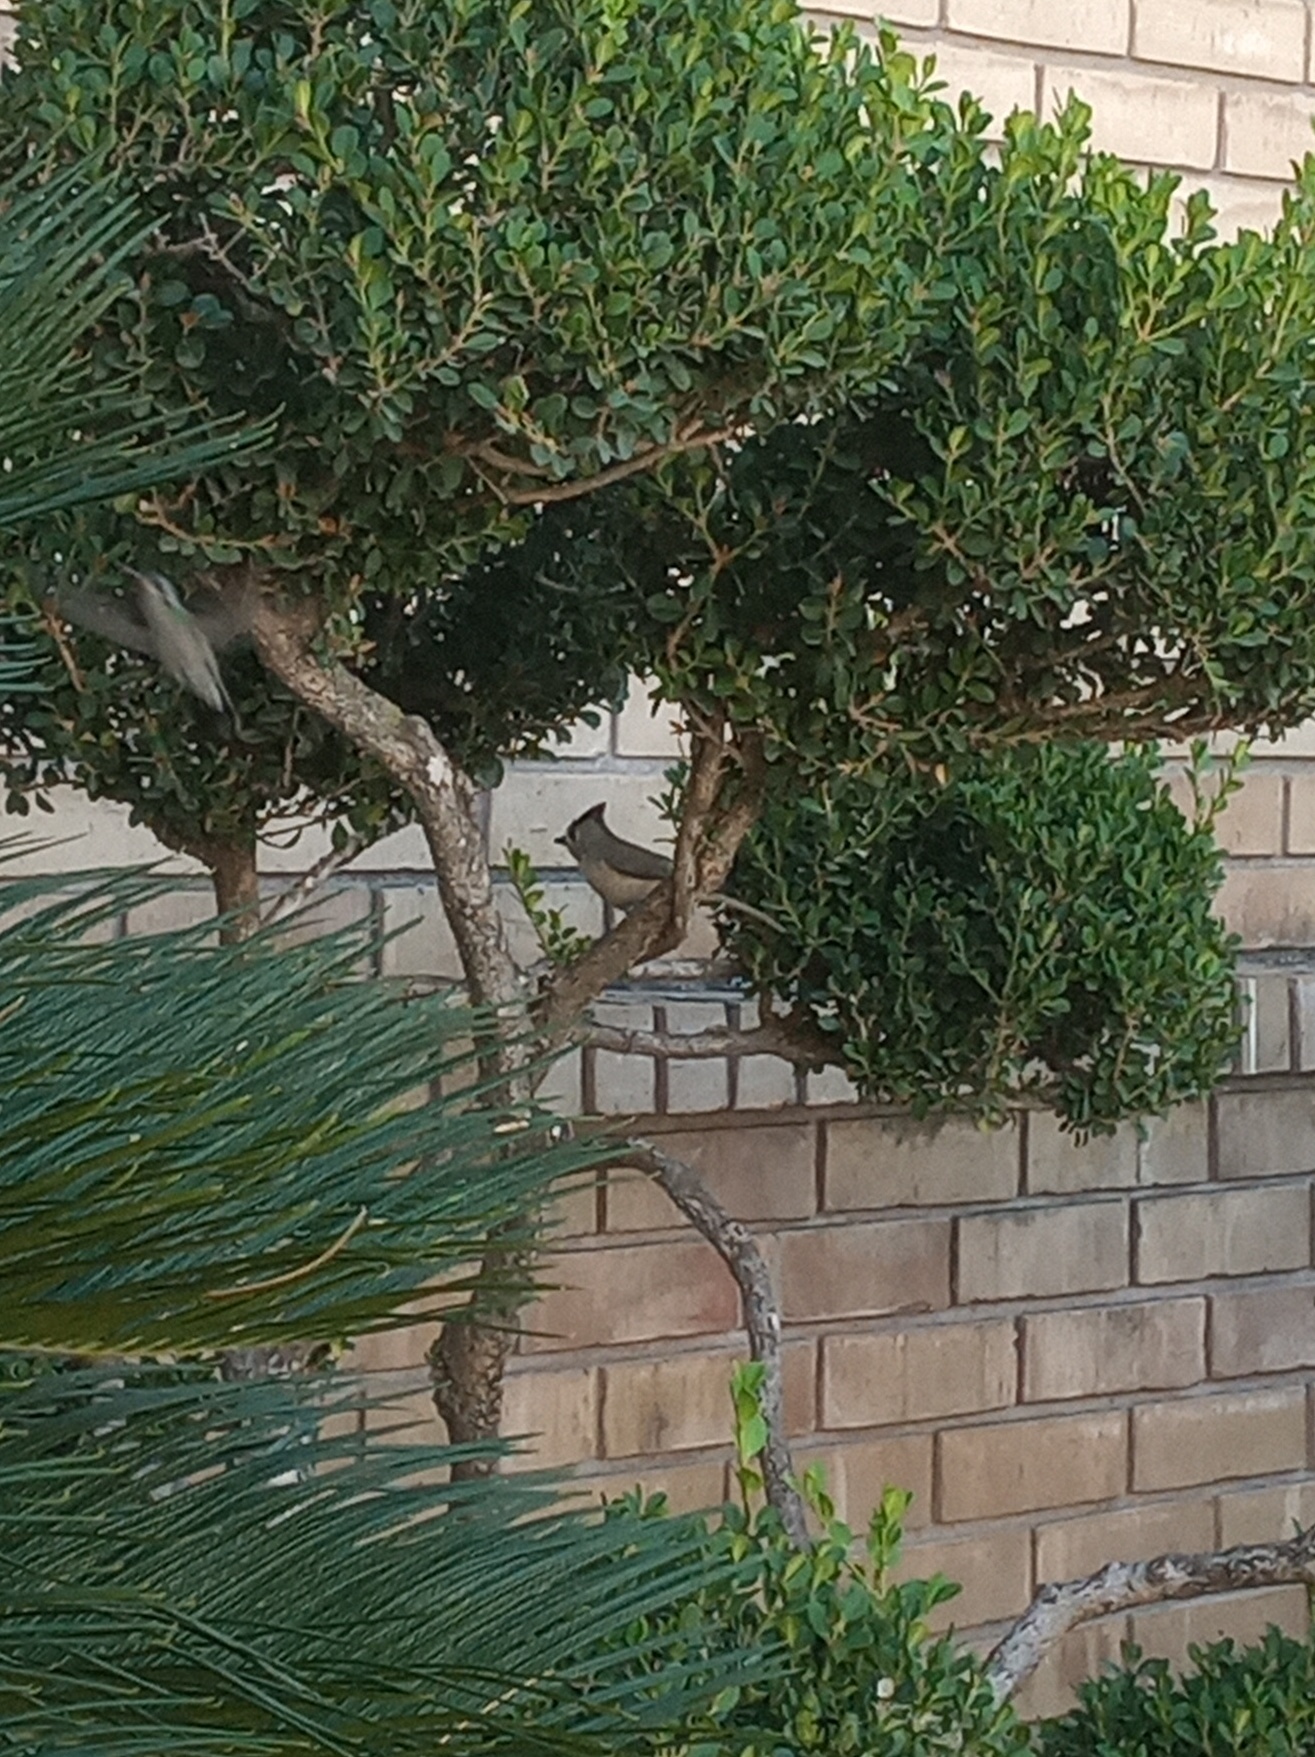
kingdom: Animalia
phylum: Chordata
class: Aves
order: Passeriformes
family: Paridae
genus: Baeolophus
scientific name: Baeolophus atricristatus
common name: Black-crested titmouse
